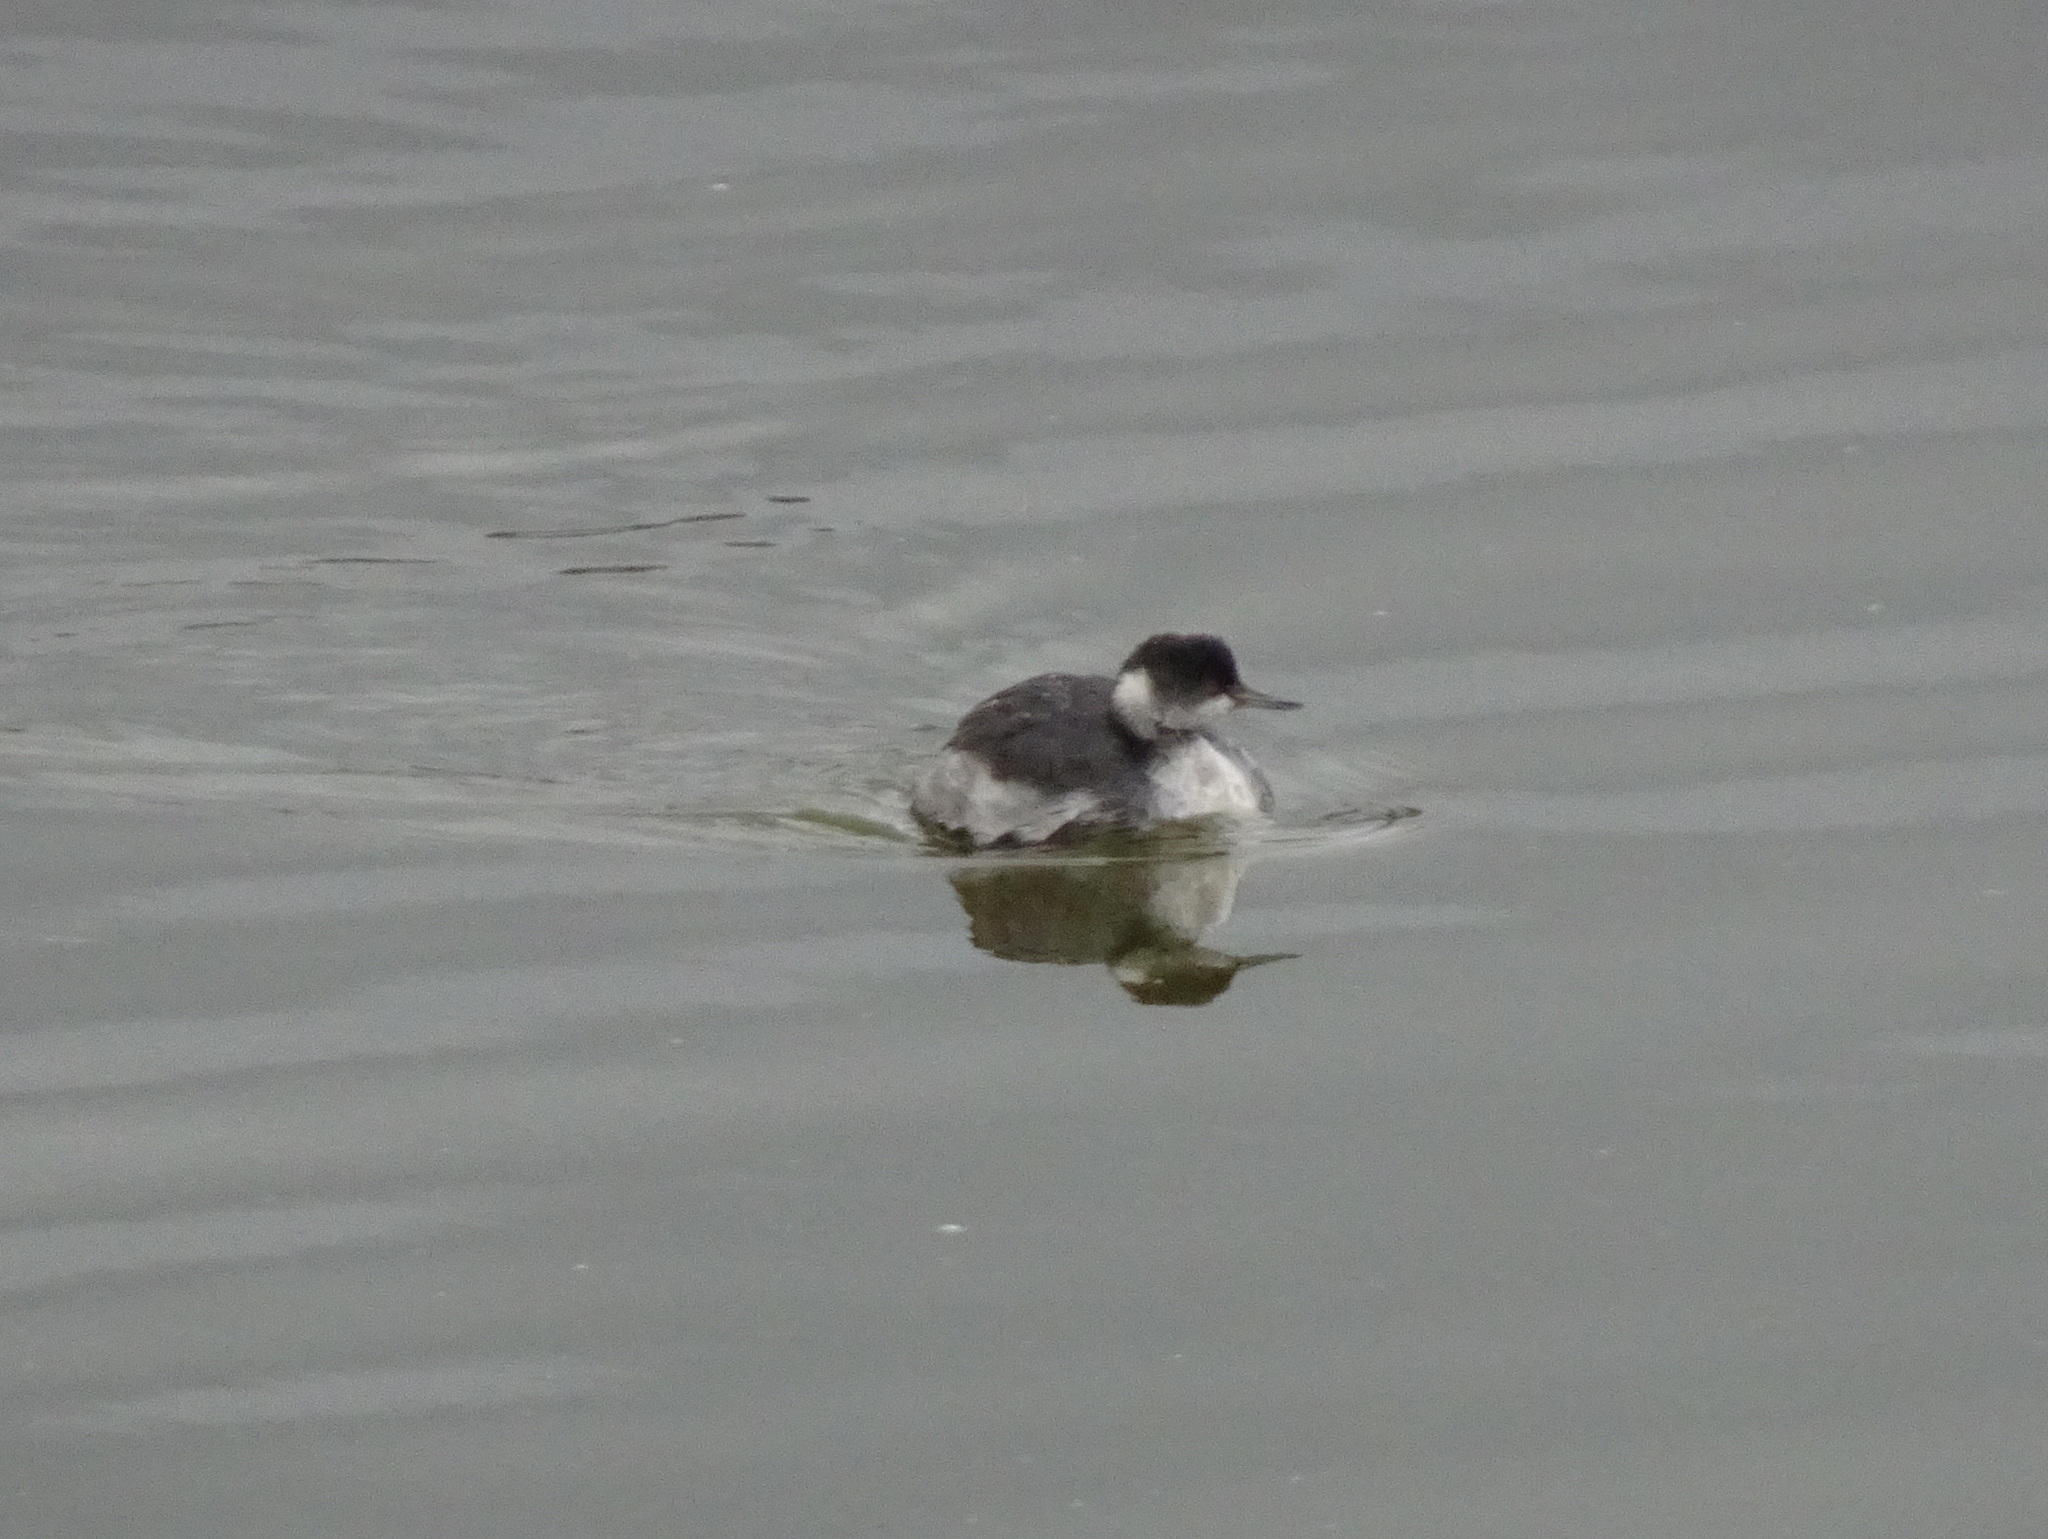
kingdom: Animalia
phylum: Chordata
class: Aves
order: Podicipediformes
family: Podicipedidae
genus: Podiceps
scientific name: Podiceps nigricollis
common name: Black-necked grebe
